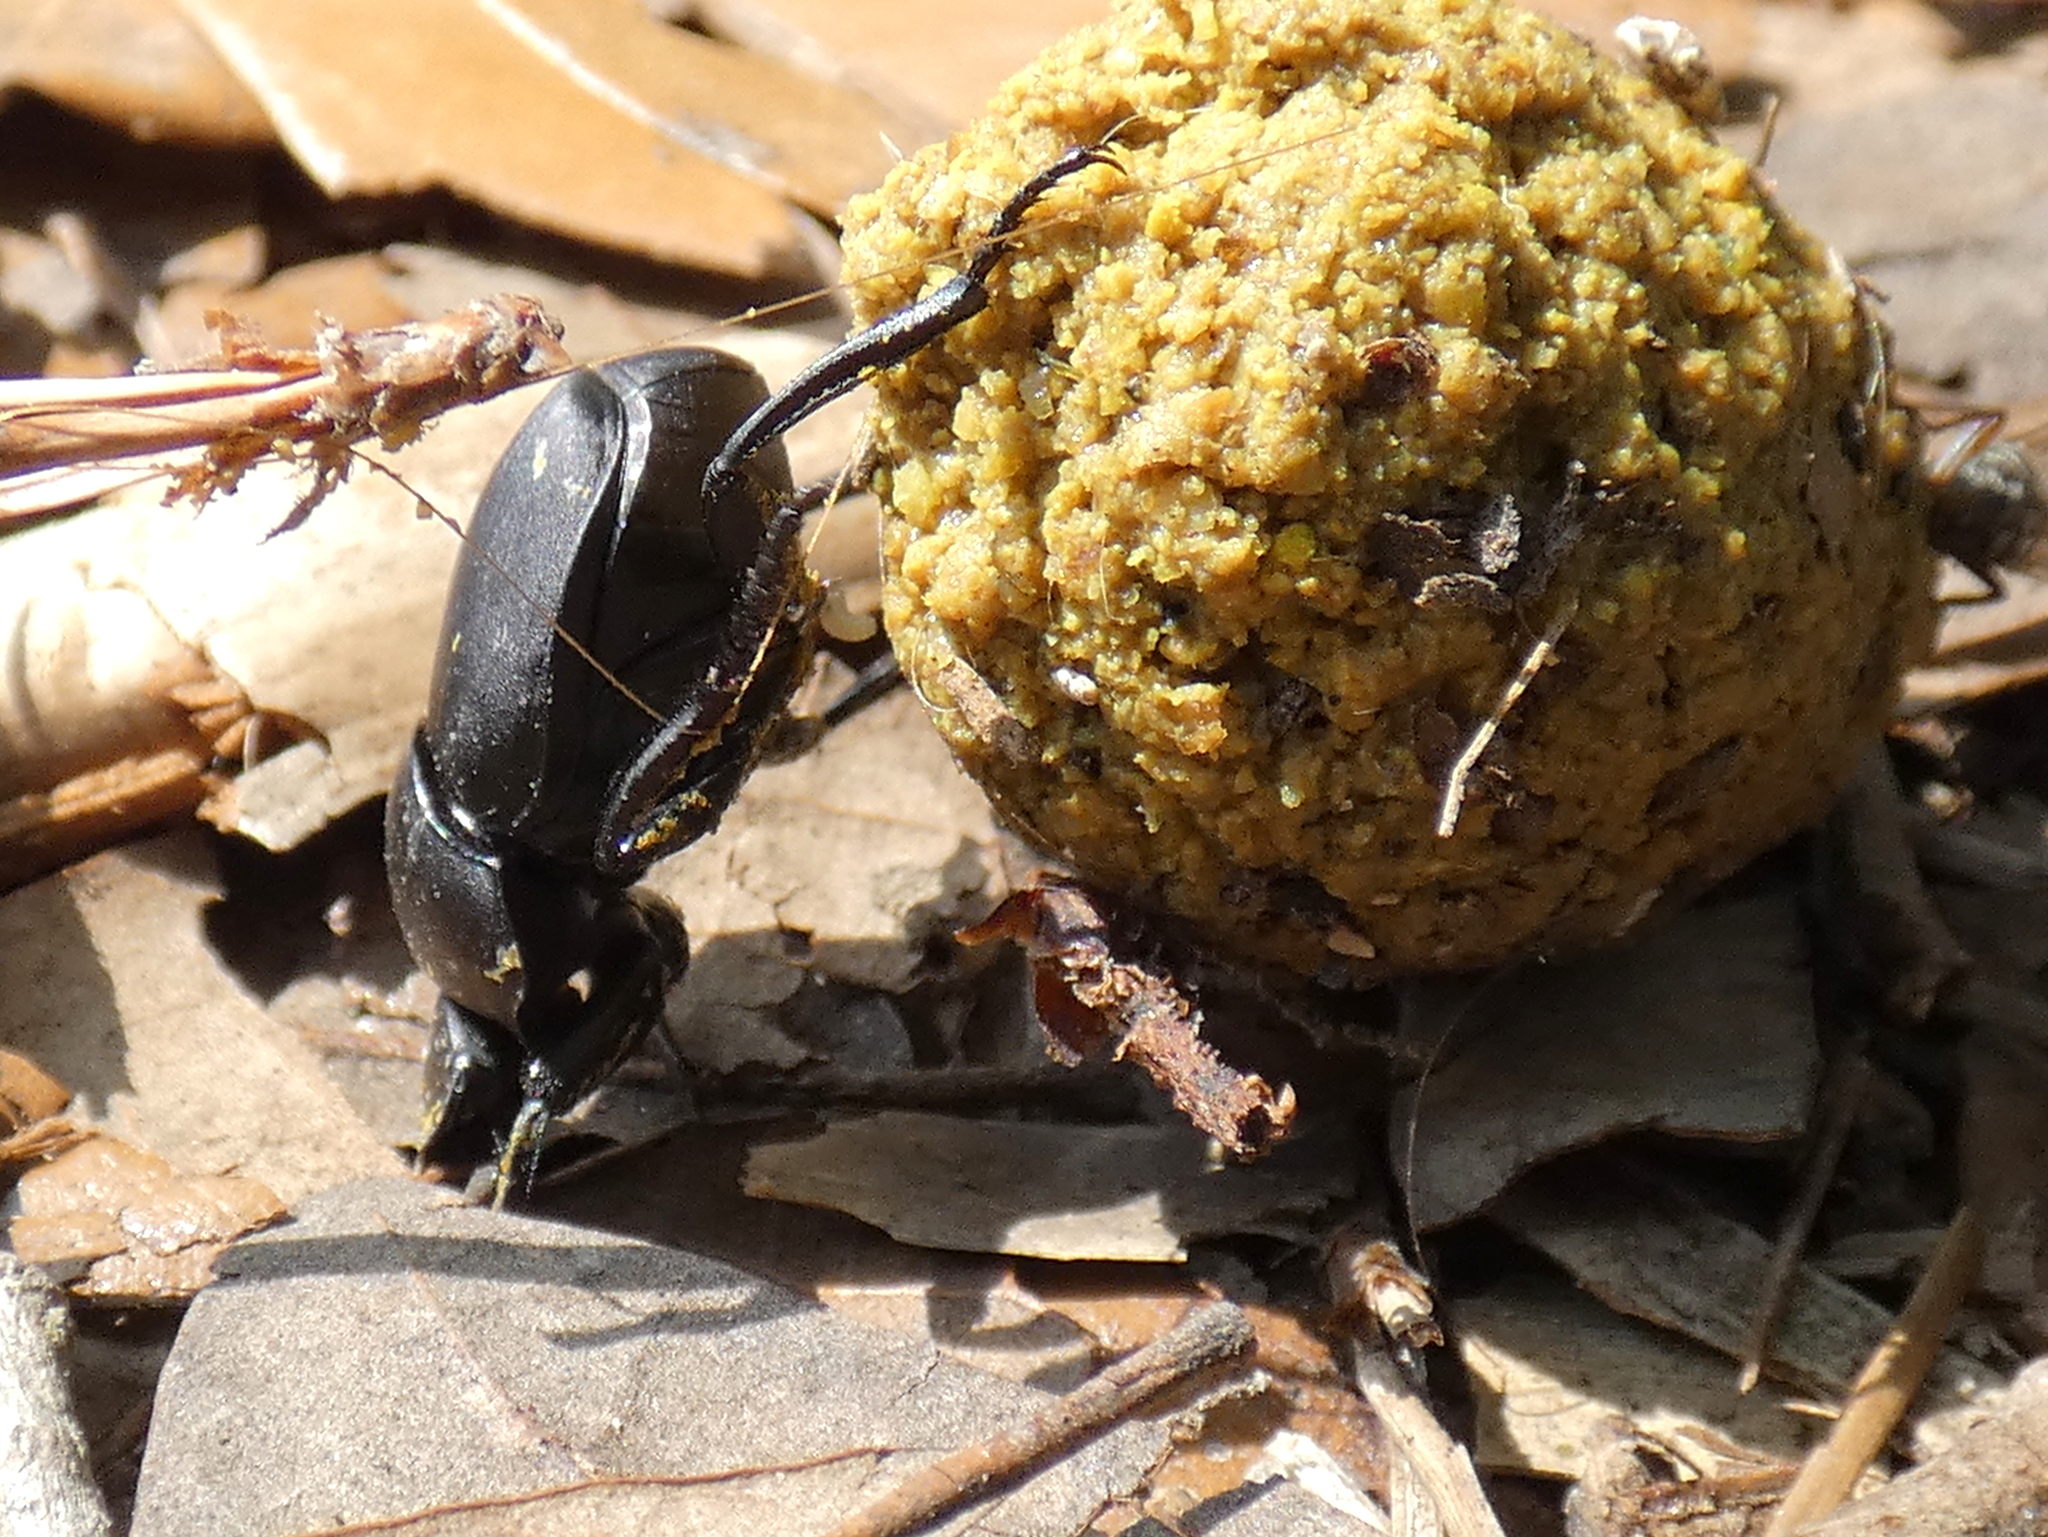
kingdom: Animalia
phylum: Arthropoda
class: Insecta
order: Coleoptera
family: Scarabaeidae
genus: Canthon
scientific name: Canthon pilularius
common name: Dull tumblebug
